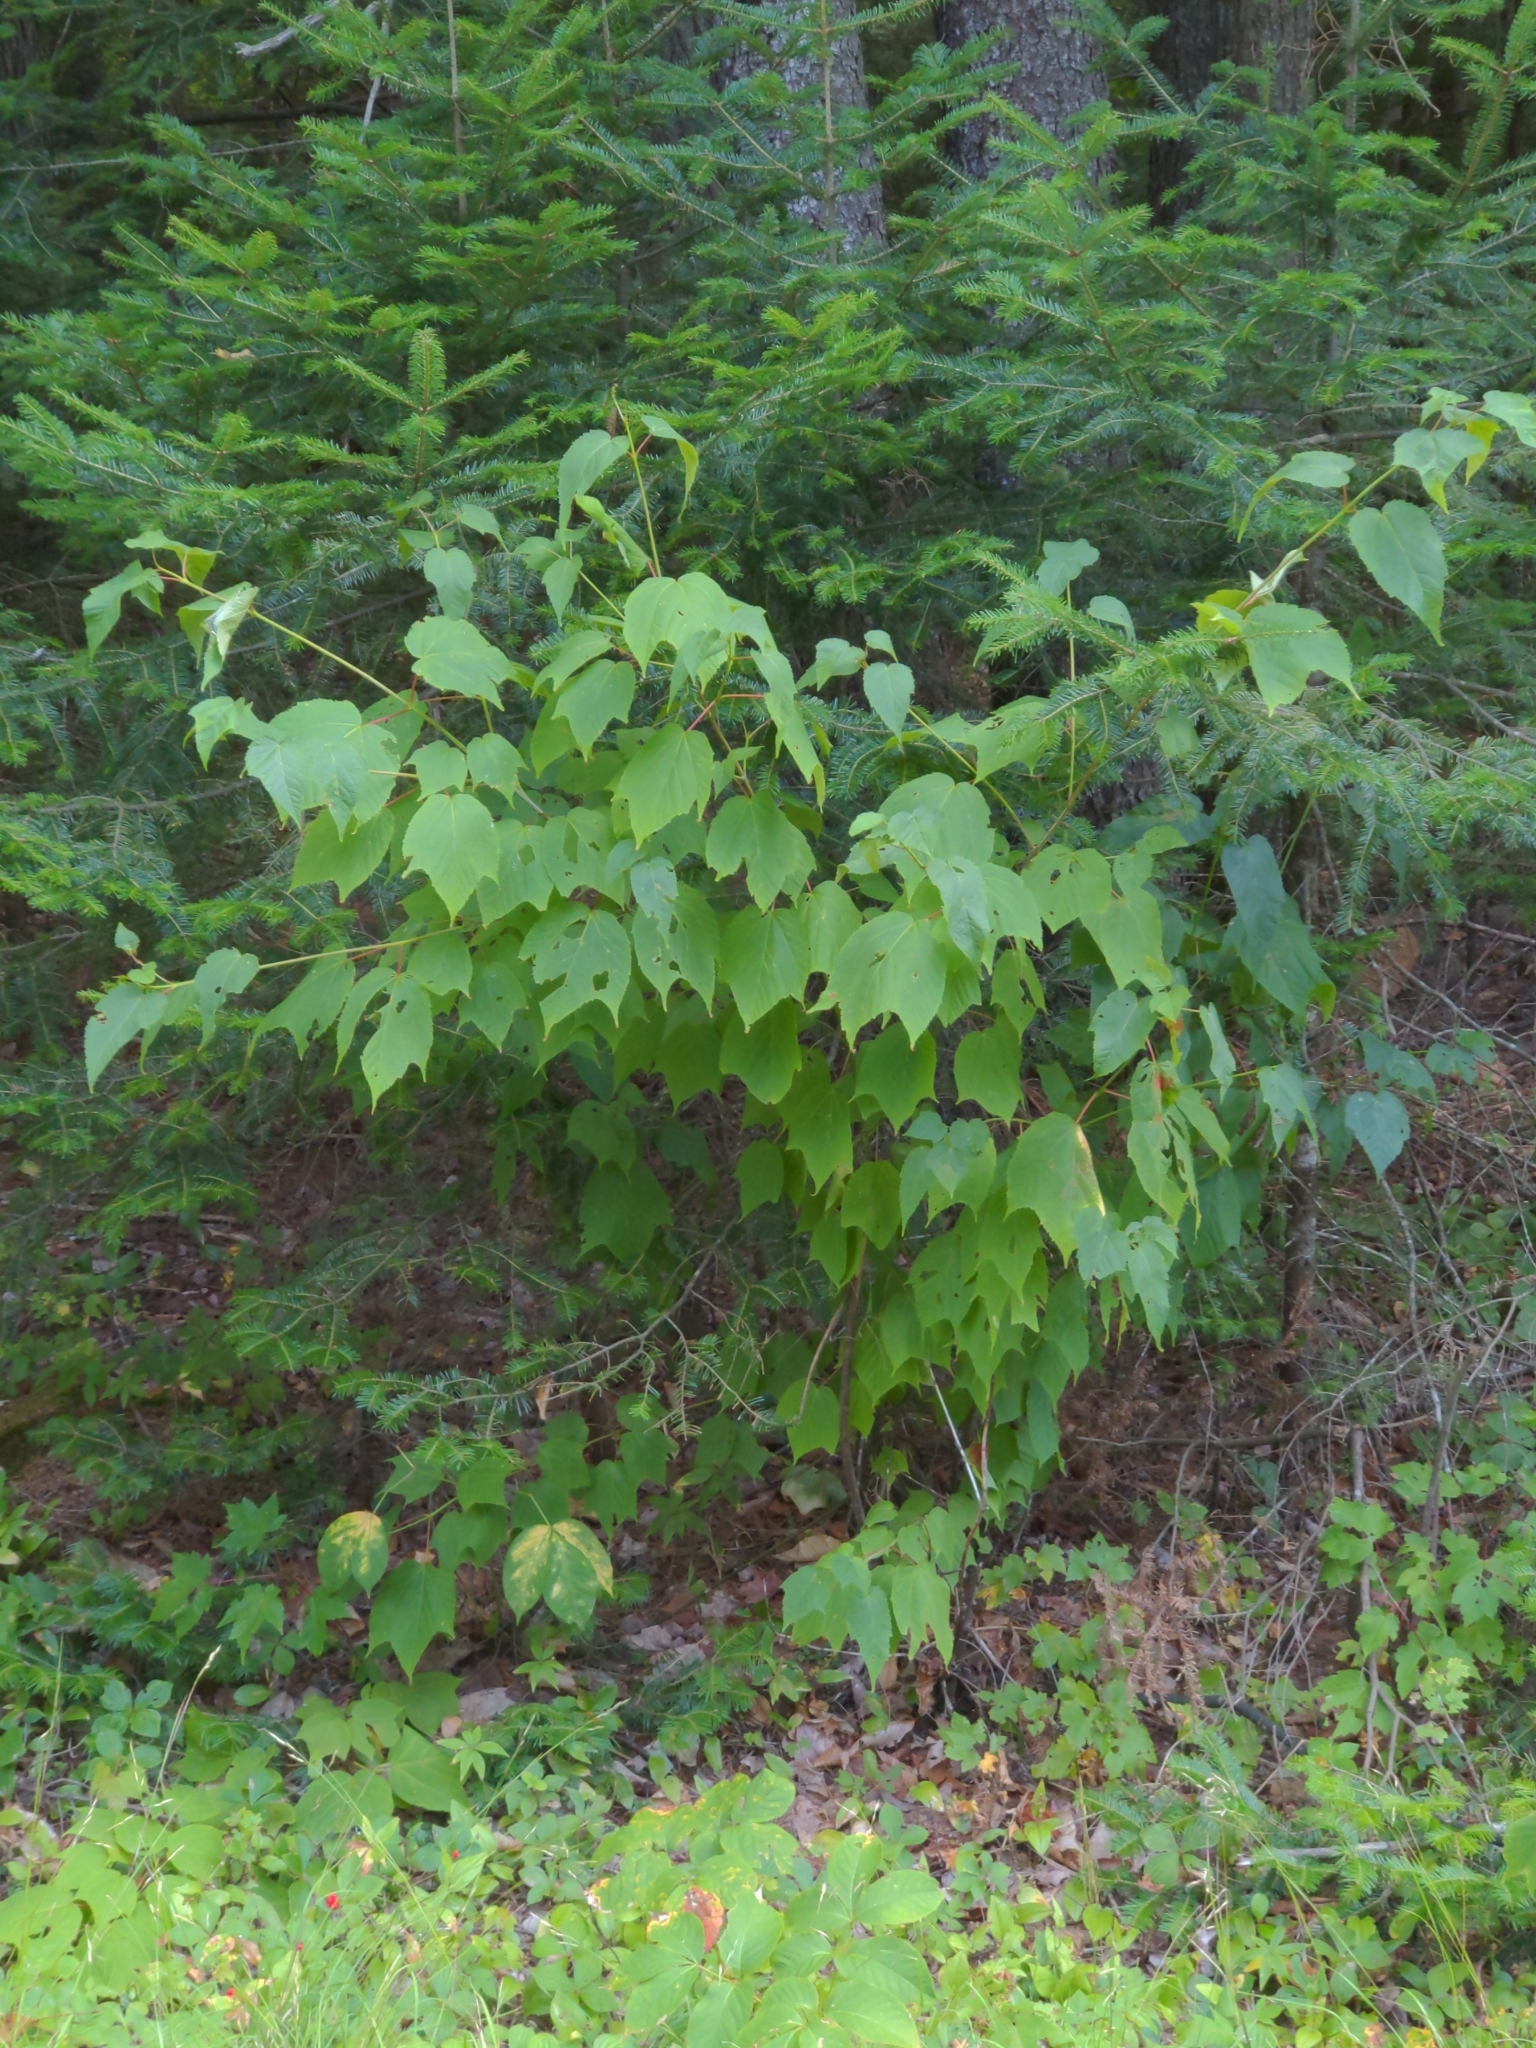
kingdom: Plantae
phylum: Tracheophyta
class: Magnoliopsida
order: Sapindales
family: Sapindaceae
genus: Acer
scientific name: Acer pensylvanicum
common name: Moosewood
